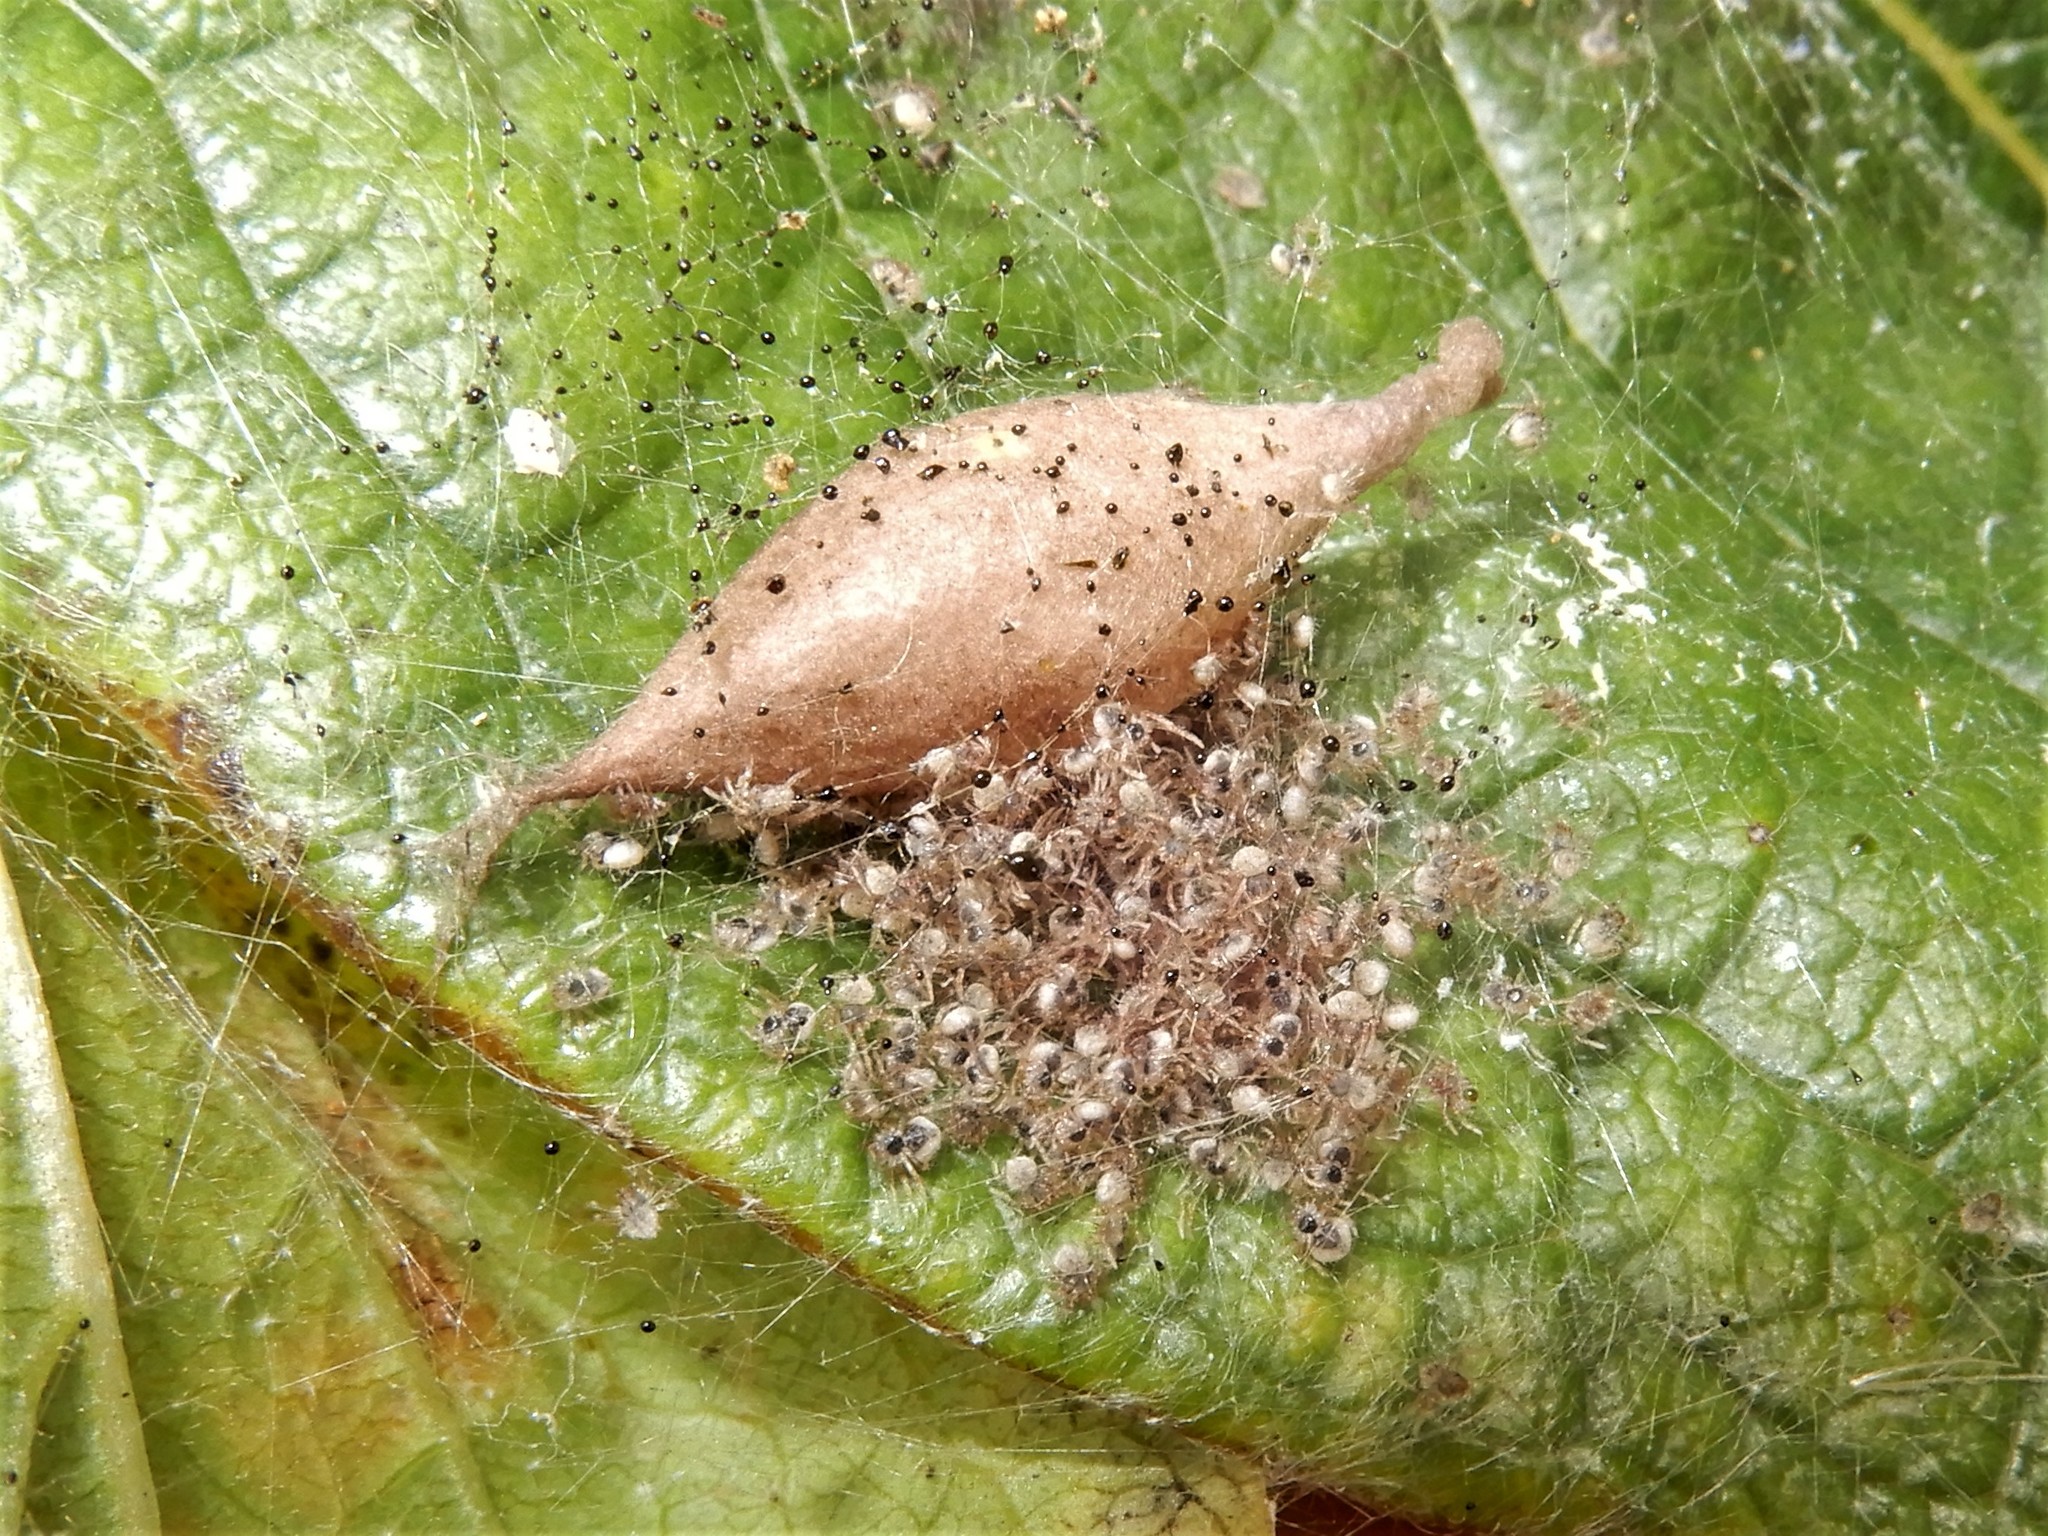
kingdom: Animalia
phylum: Arthropoda
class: Arachnida
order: Araneae
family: Araneidae
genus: Poecilopachys
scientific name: Poecilopachys australasia
